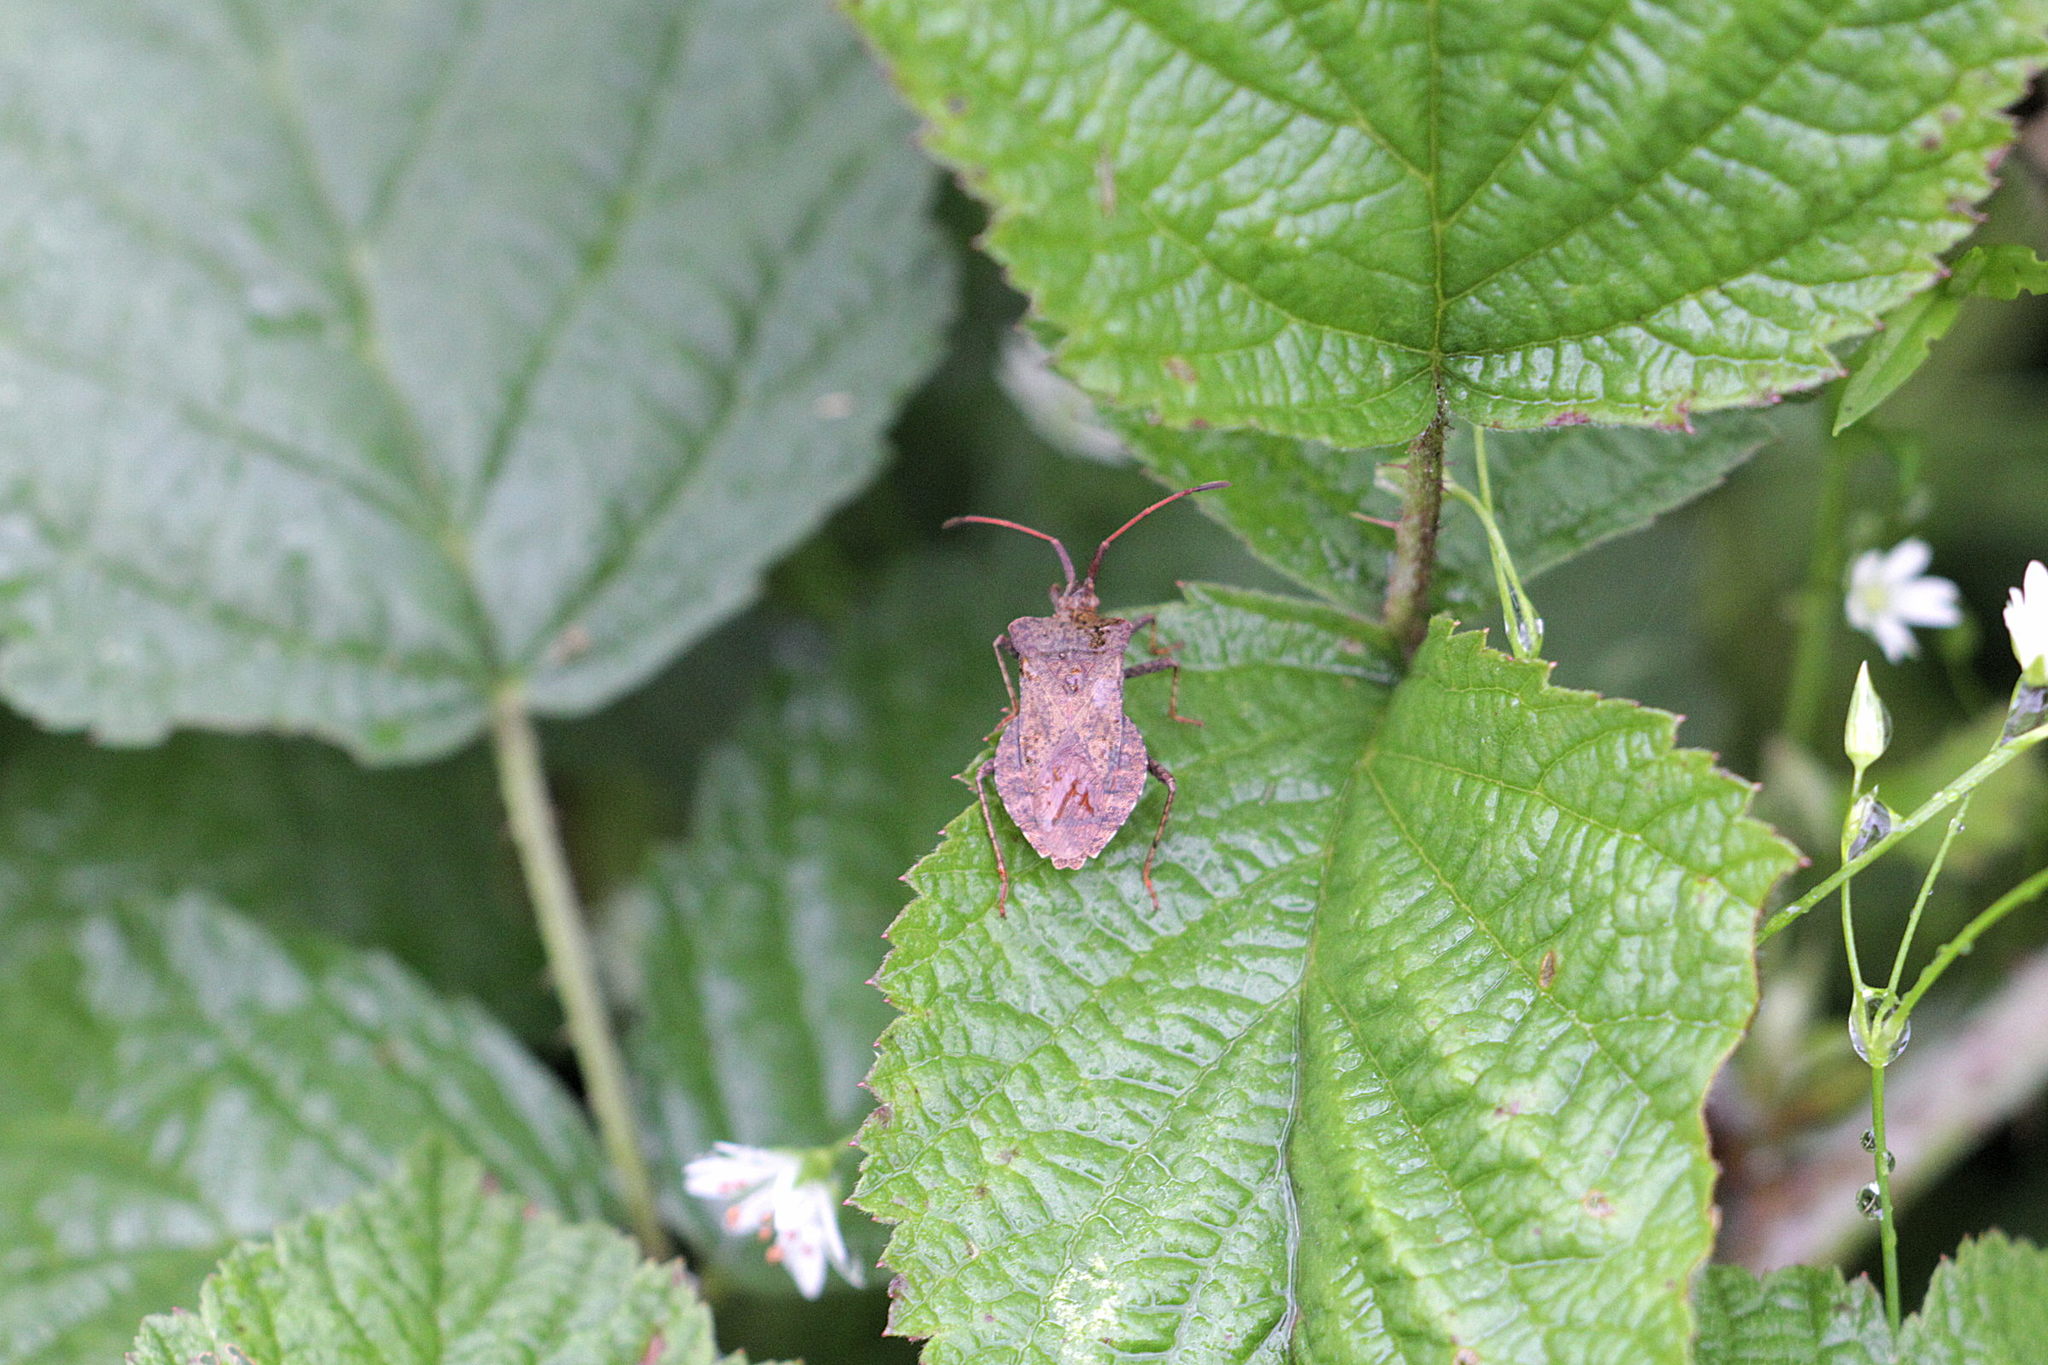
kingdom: Animalia
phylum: Arthropoda
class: Insecta
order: Hemiptera
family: Coreidae
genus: Coreus
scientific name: Coreus marginatus
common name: Dock bug
